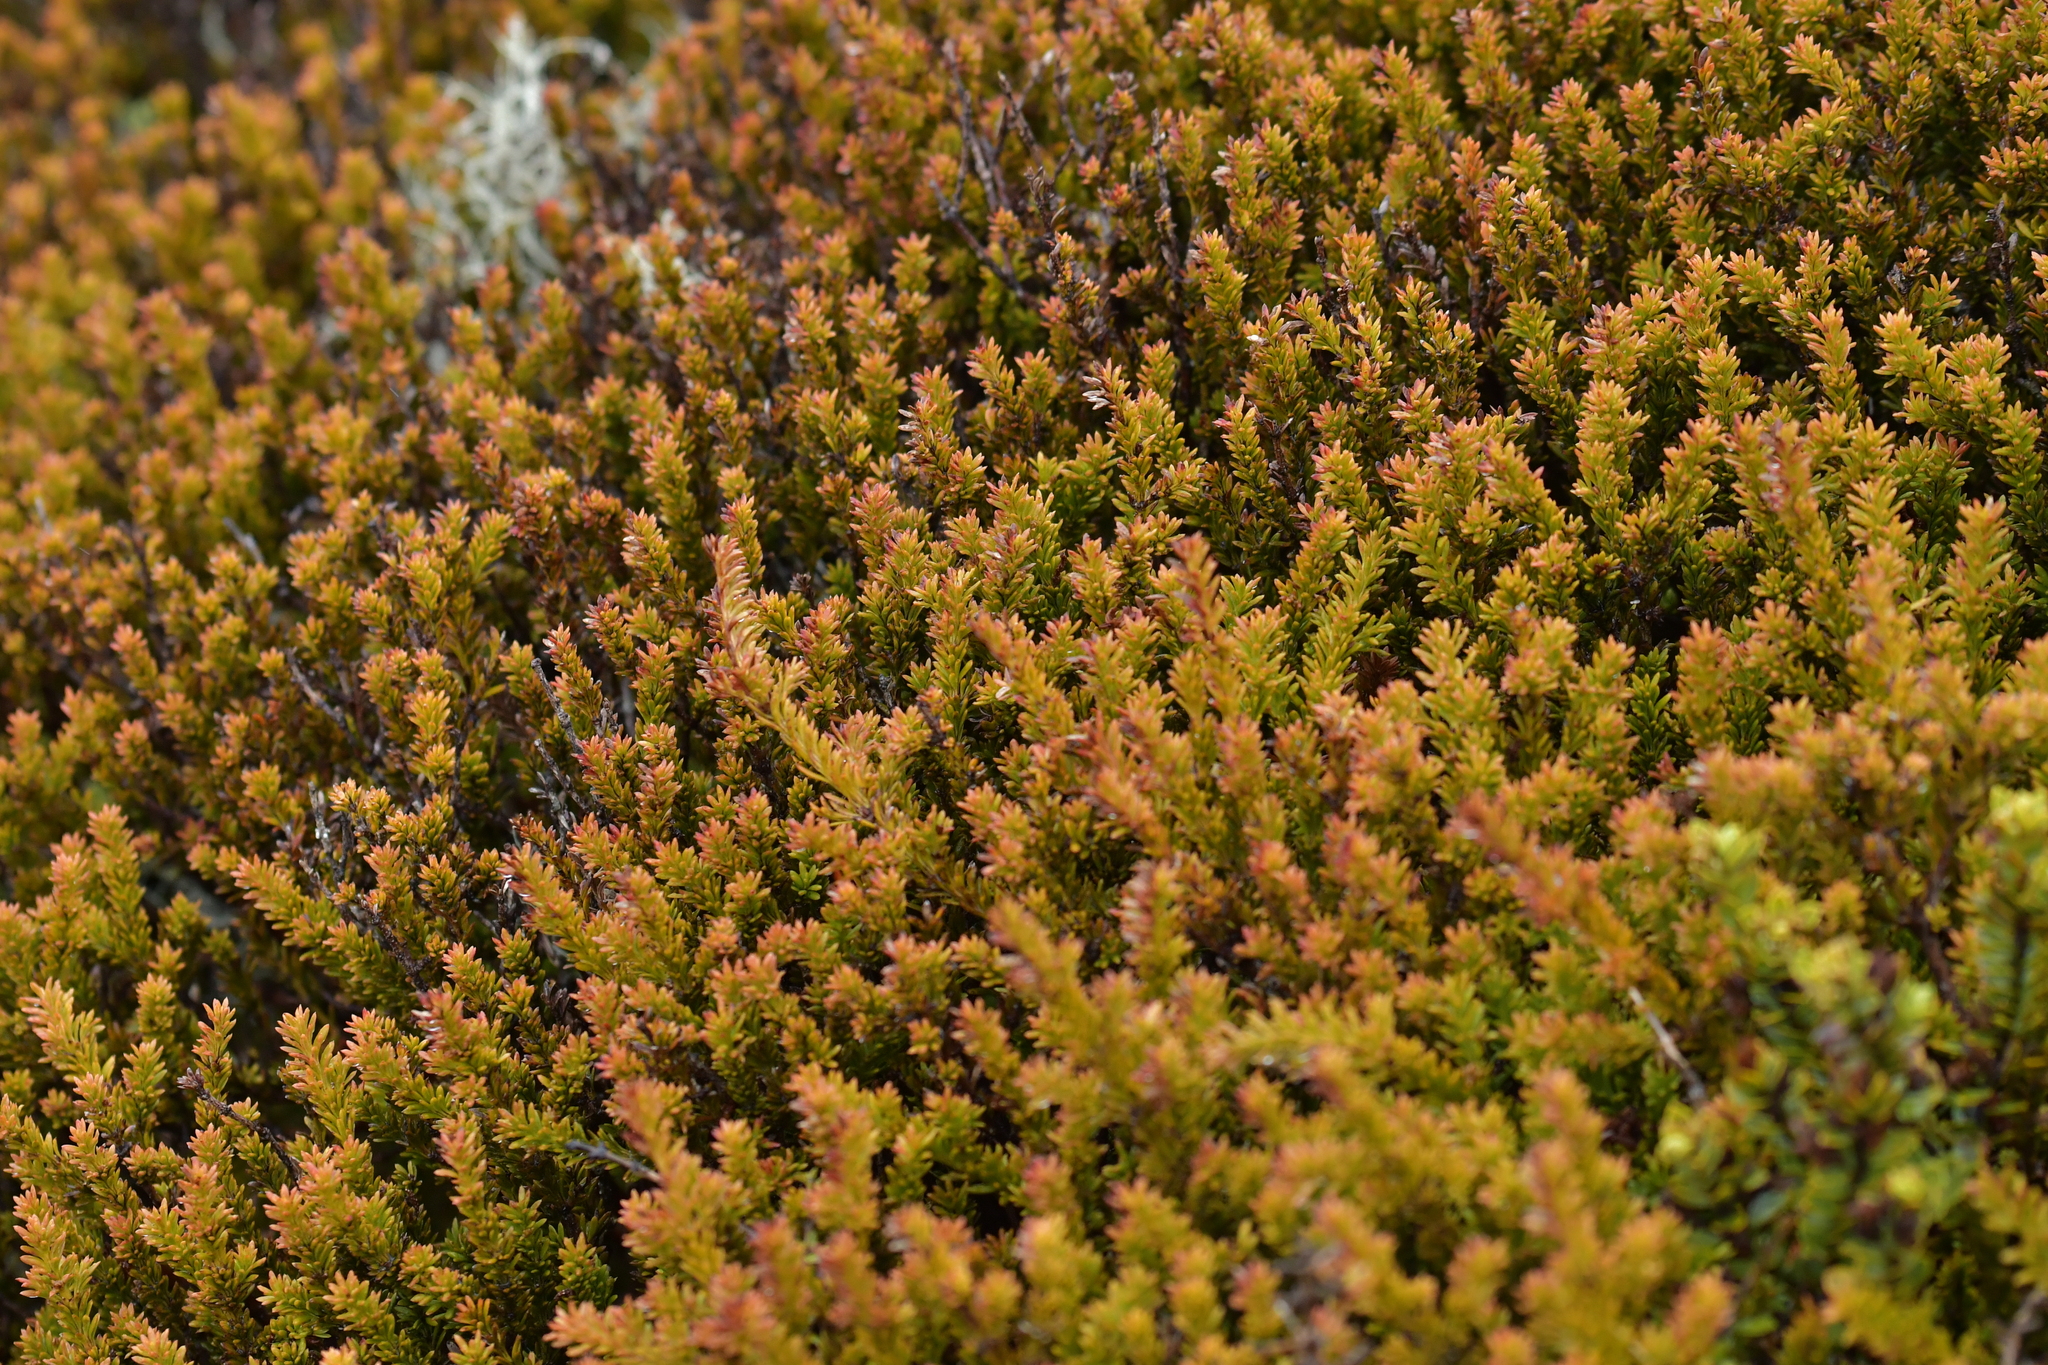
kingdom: Plantae
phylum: Tracheophyta
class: Pinopsida
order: Pinales
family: Podocarpaceae
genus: Podocarpus
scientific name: Podocarpus nivalis
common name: Alpine totara
